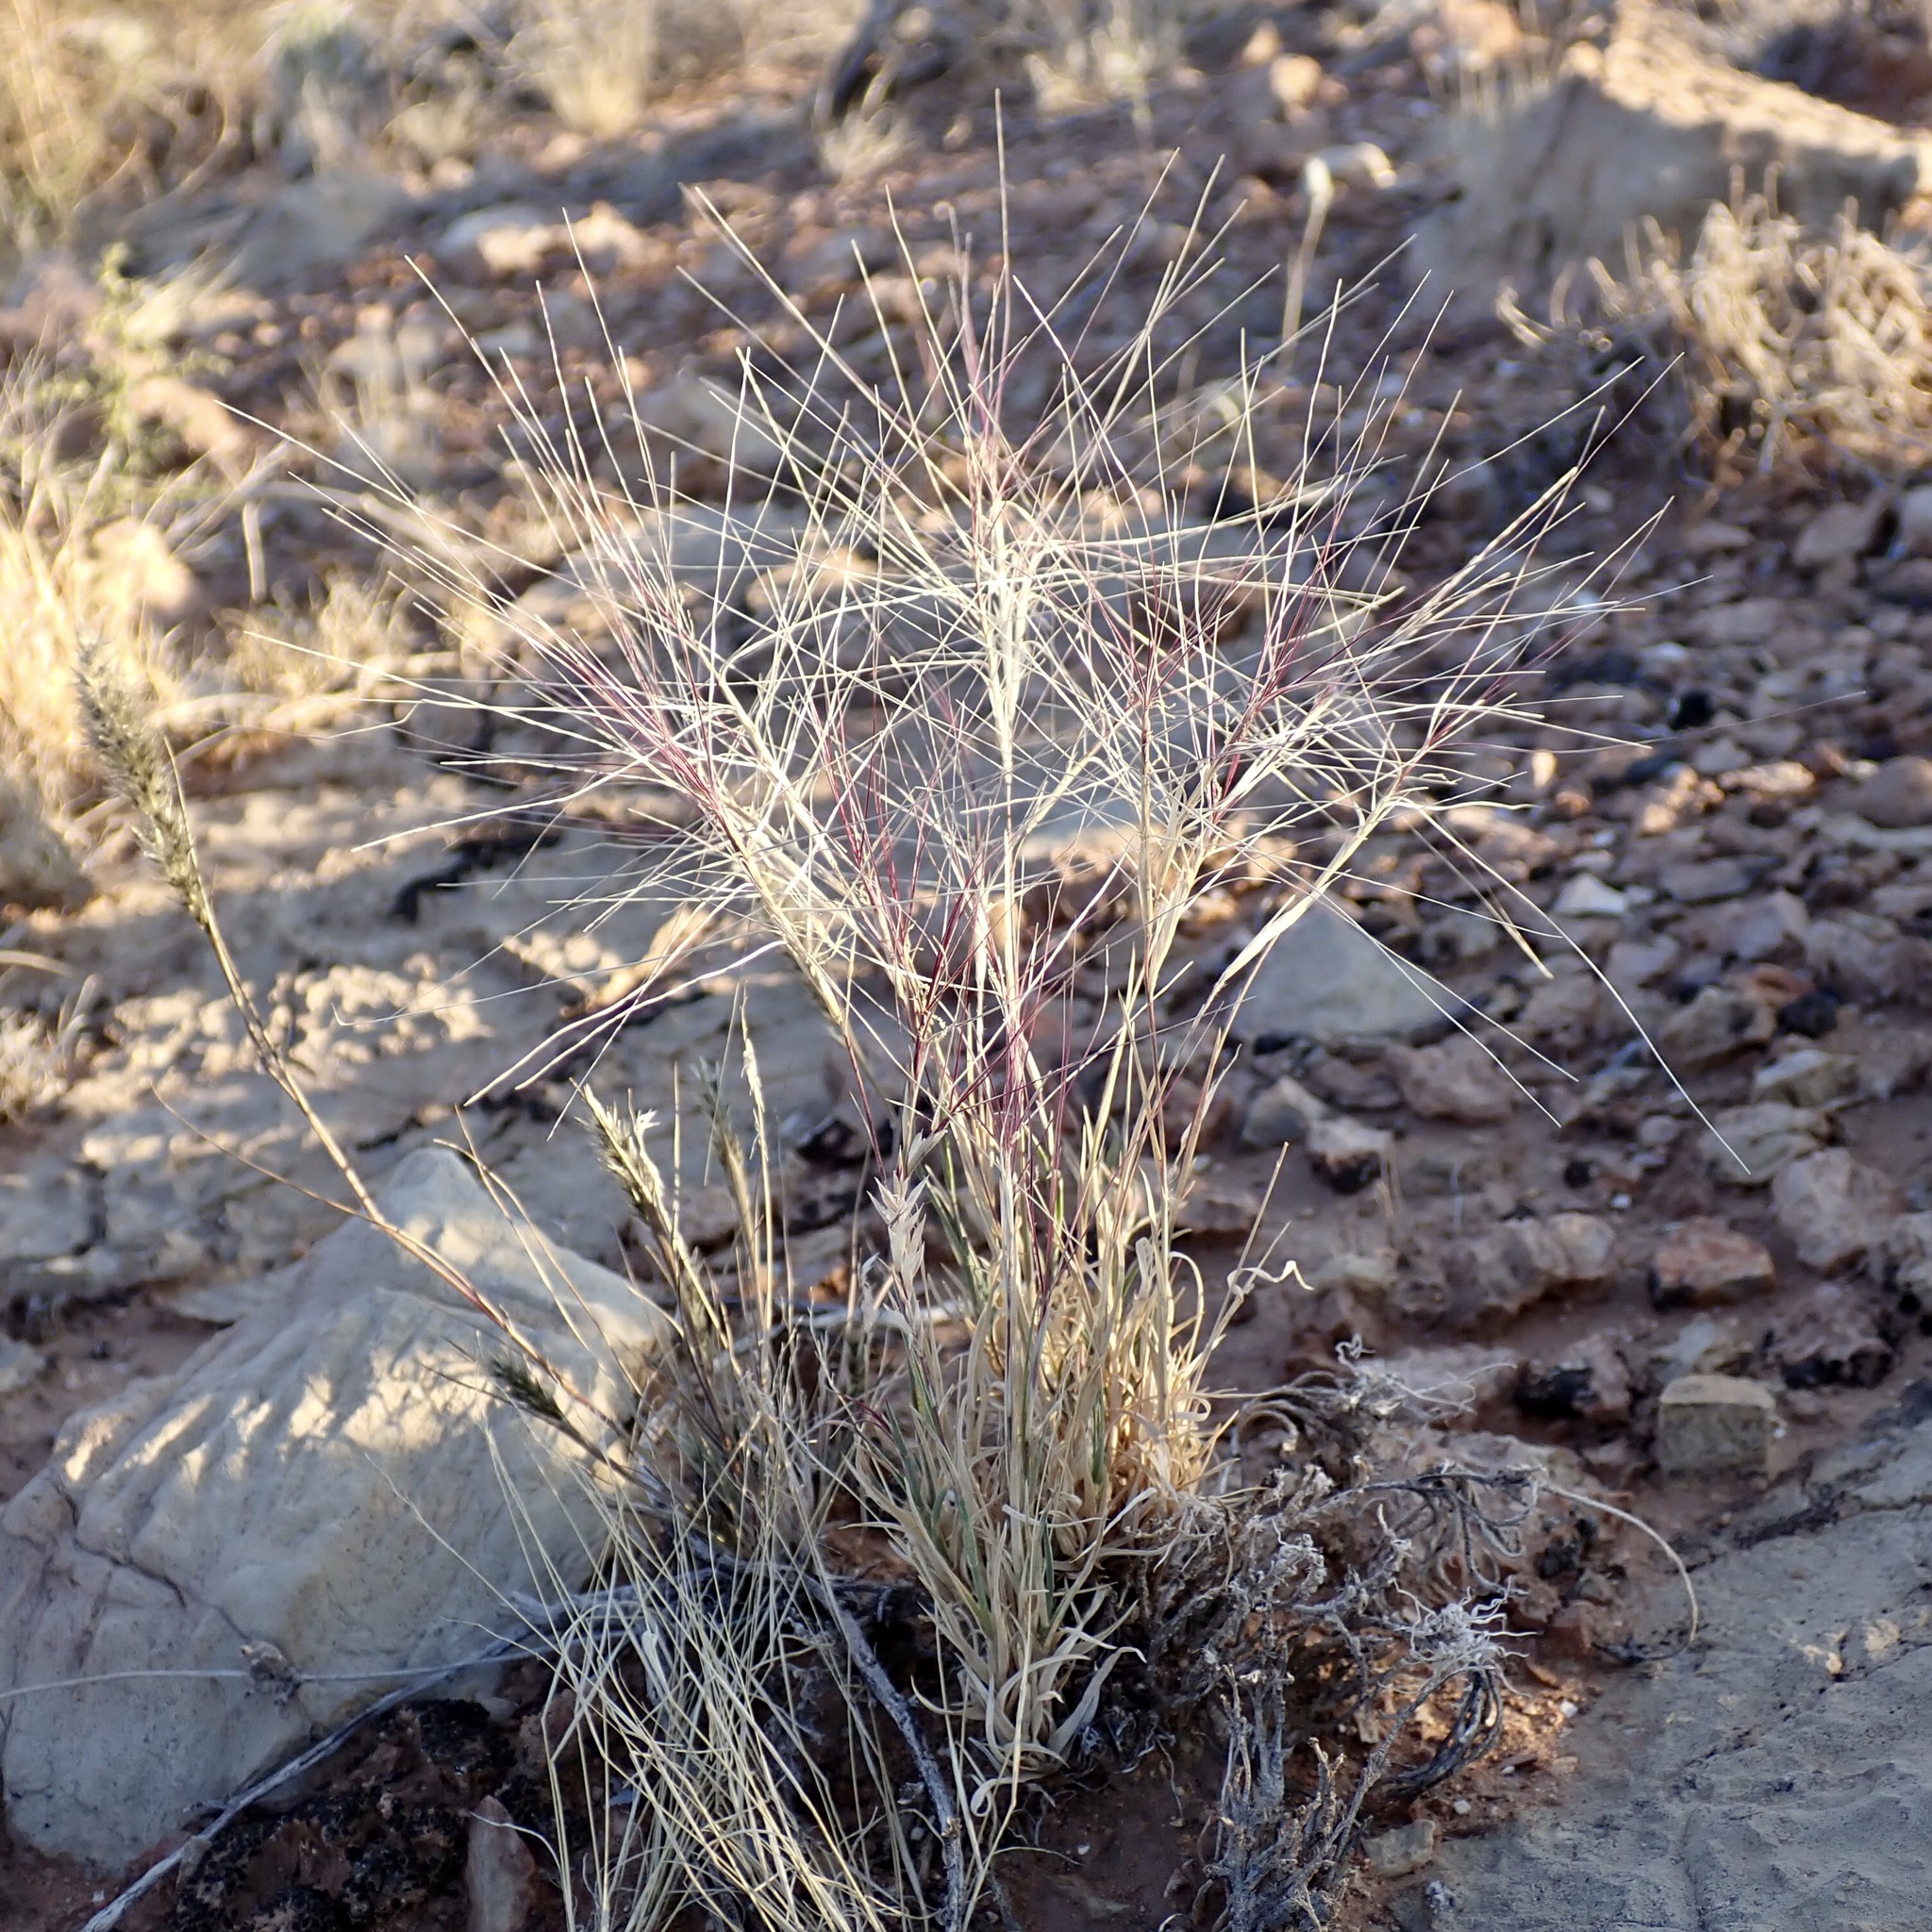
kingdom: Plantae
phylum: Tracheophyta
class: Liliopsida
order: Poales
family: Poaceae
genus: Scleropogon
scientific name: Scleropogon brevifolius
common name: Burro grass
